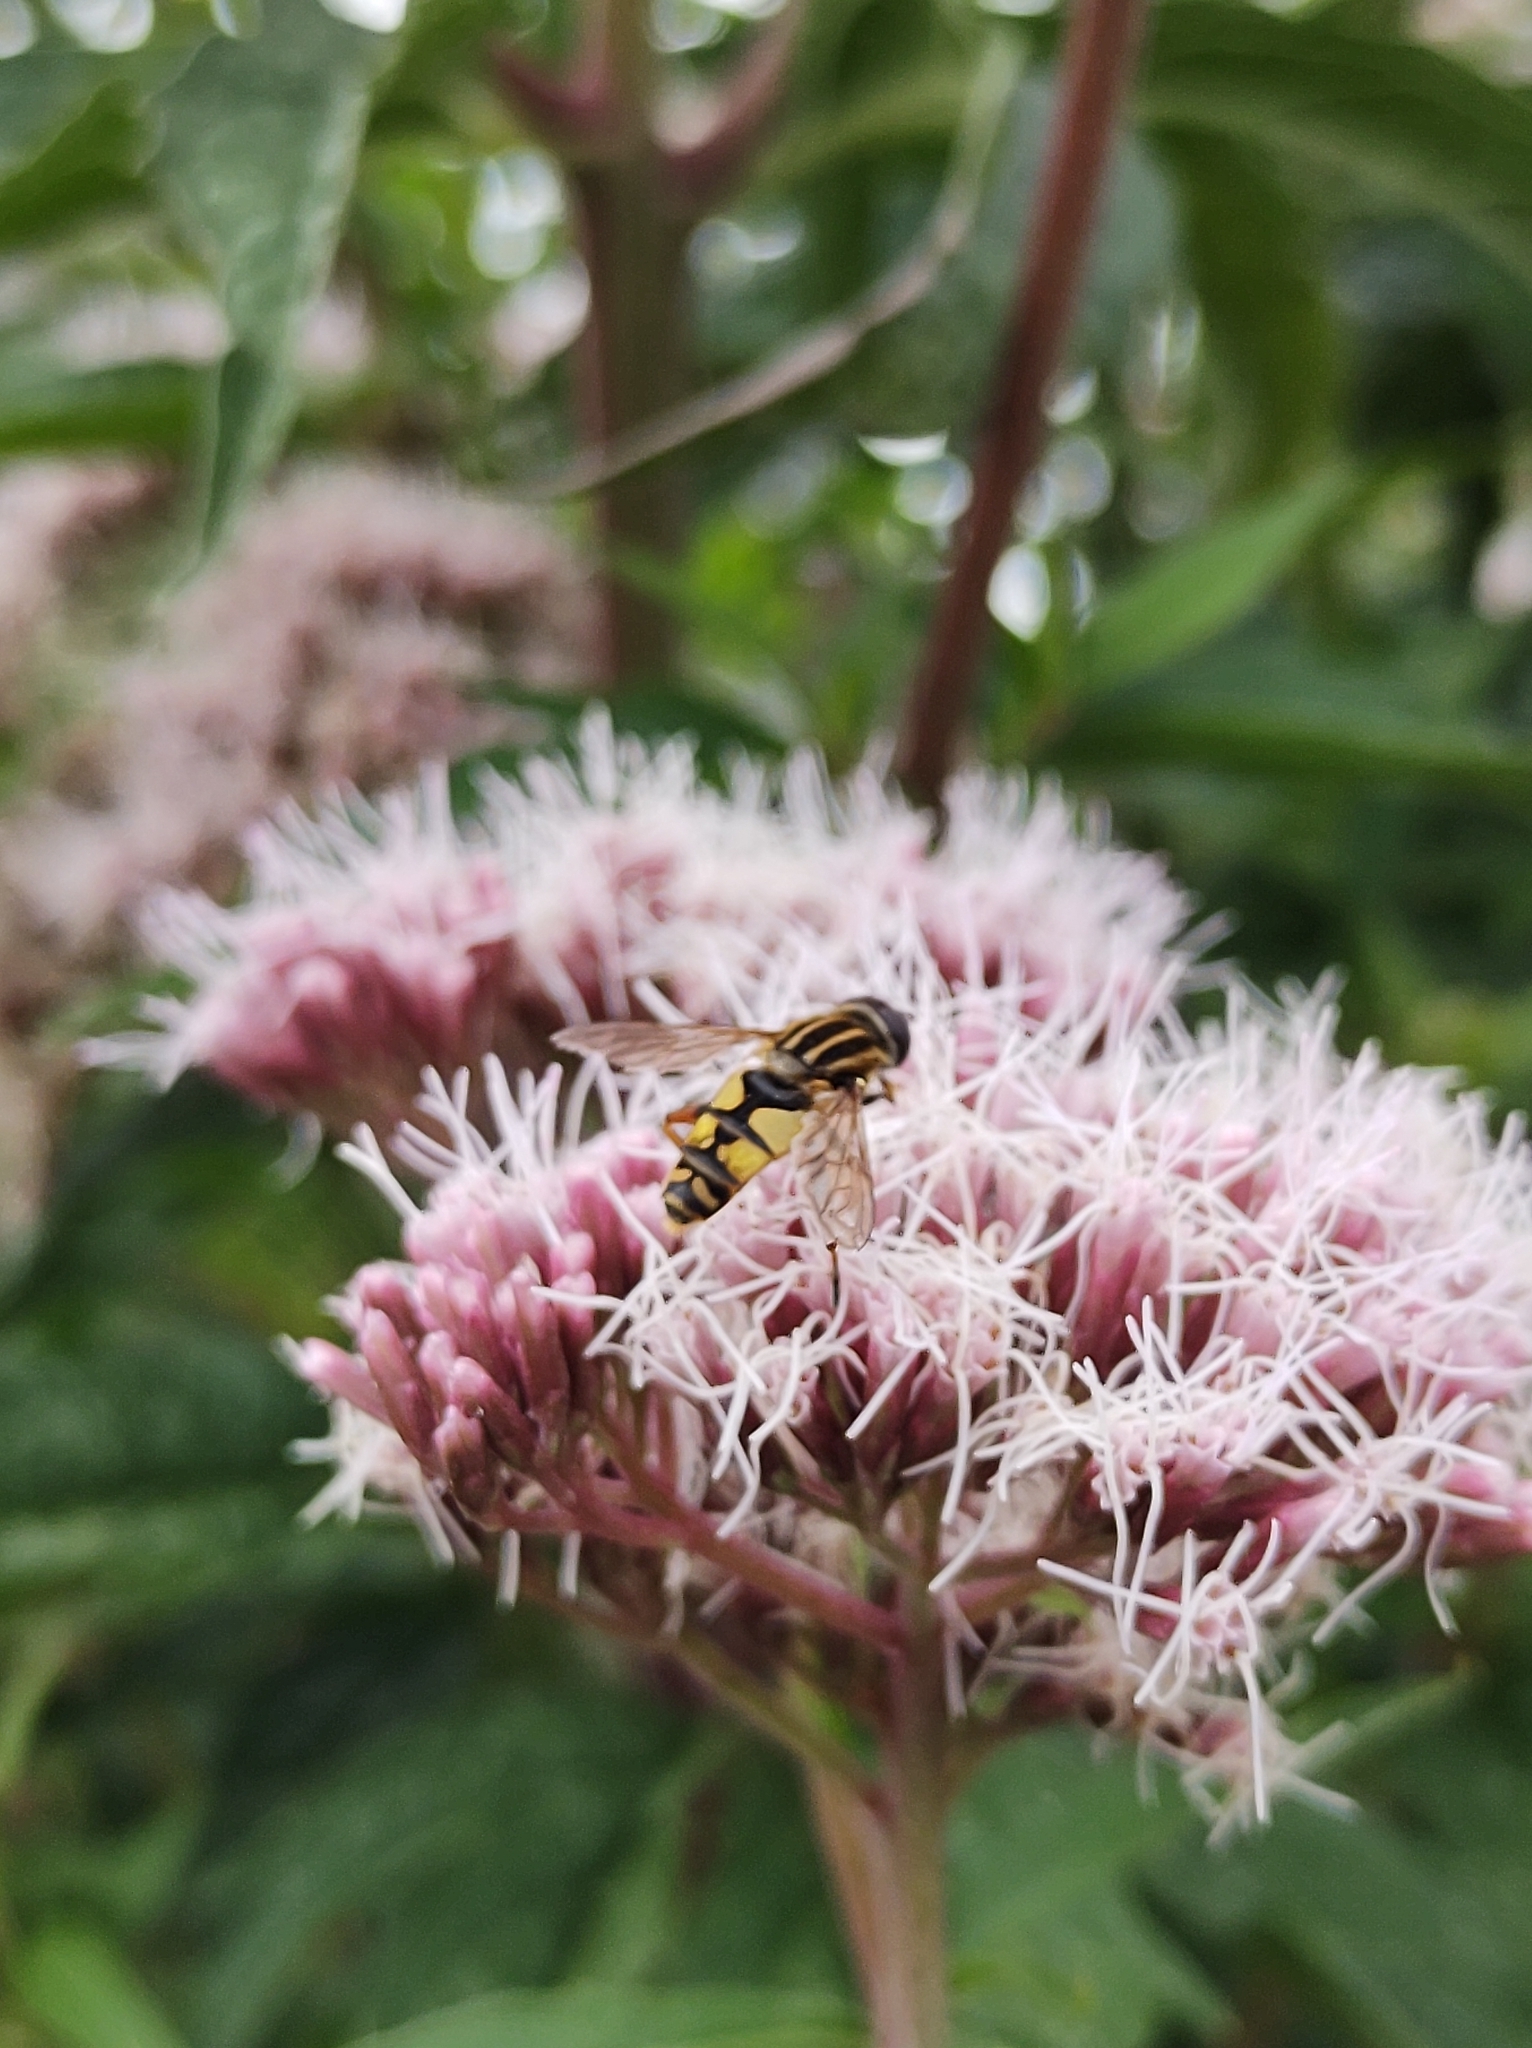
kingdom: Animalia
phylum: Arthropoda
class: Insecta
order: Diptera
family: Syrphidae
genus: Helophilus
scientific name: Helophilus pendulus
